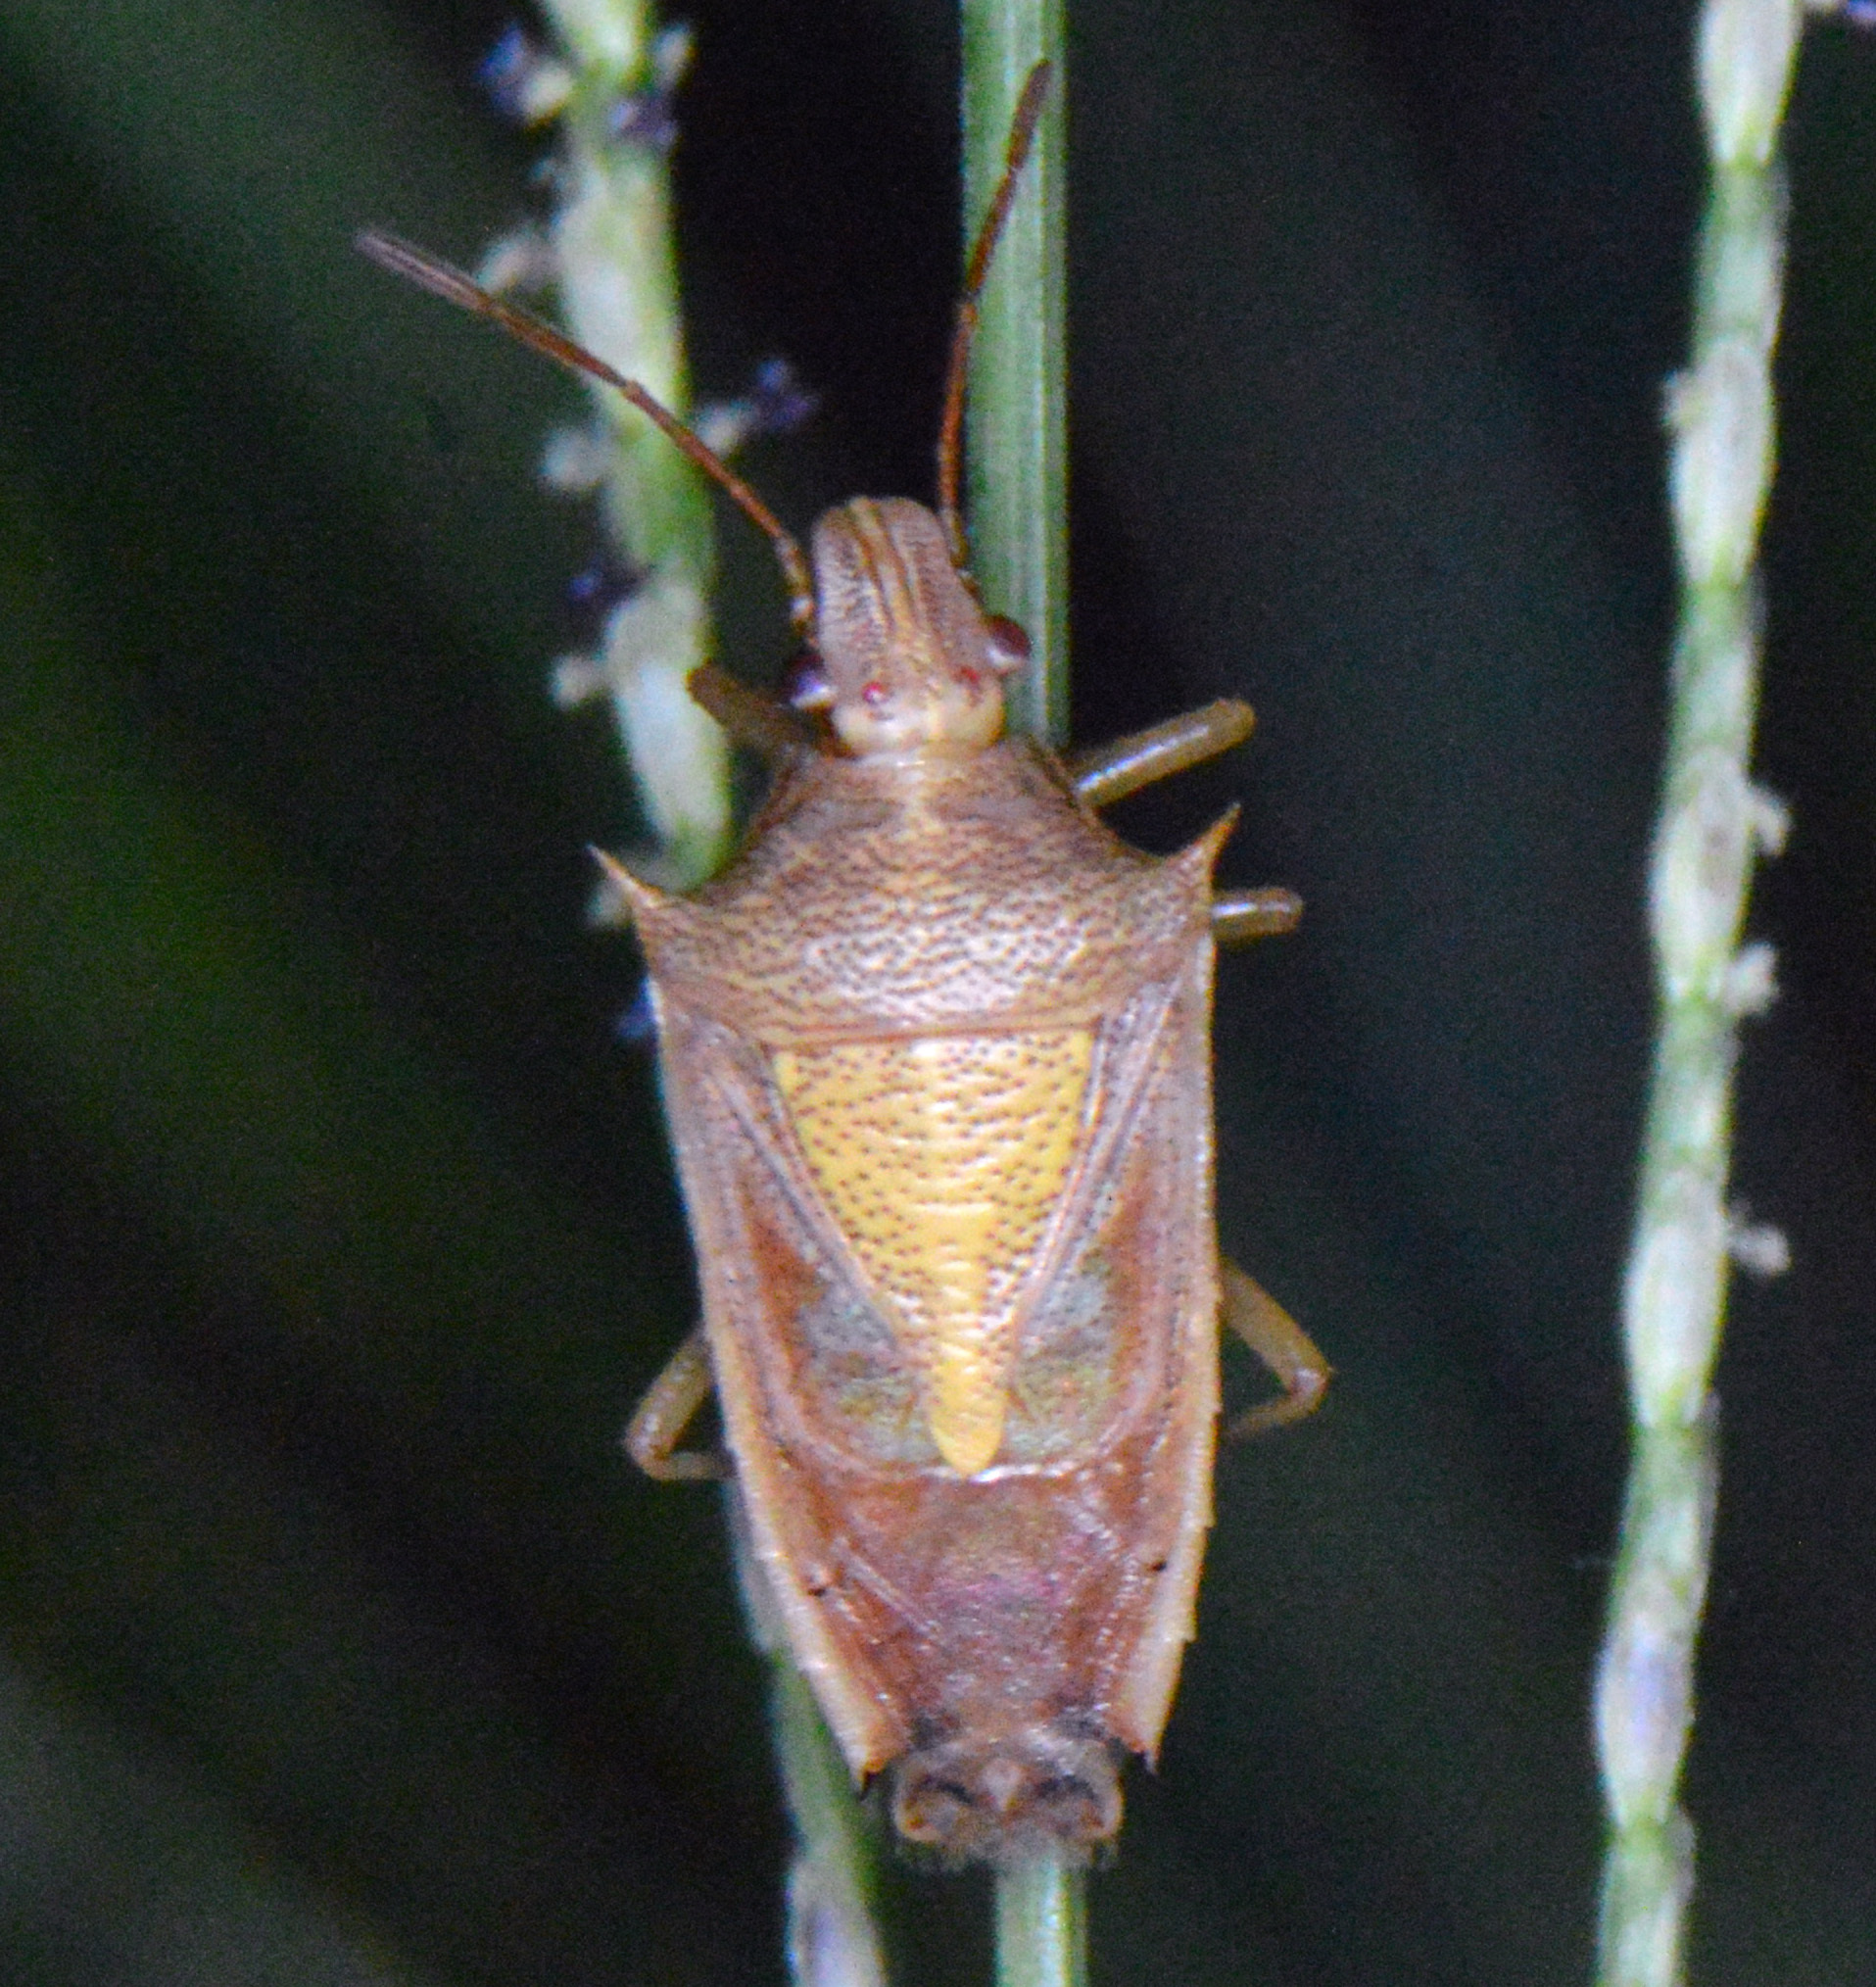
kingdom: Animalia
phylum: Arthropoda
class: Insecta
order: Hemiptera
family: Pentatomidae
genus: Oebalus
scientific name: Oebalus pugnax
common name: Rice stink bug
